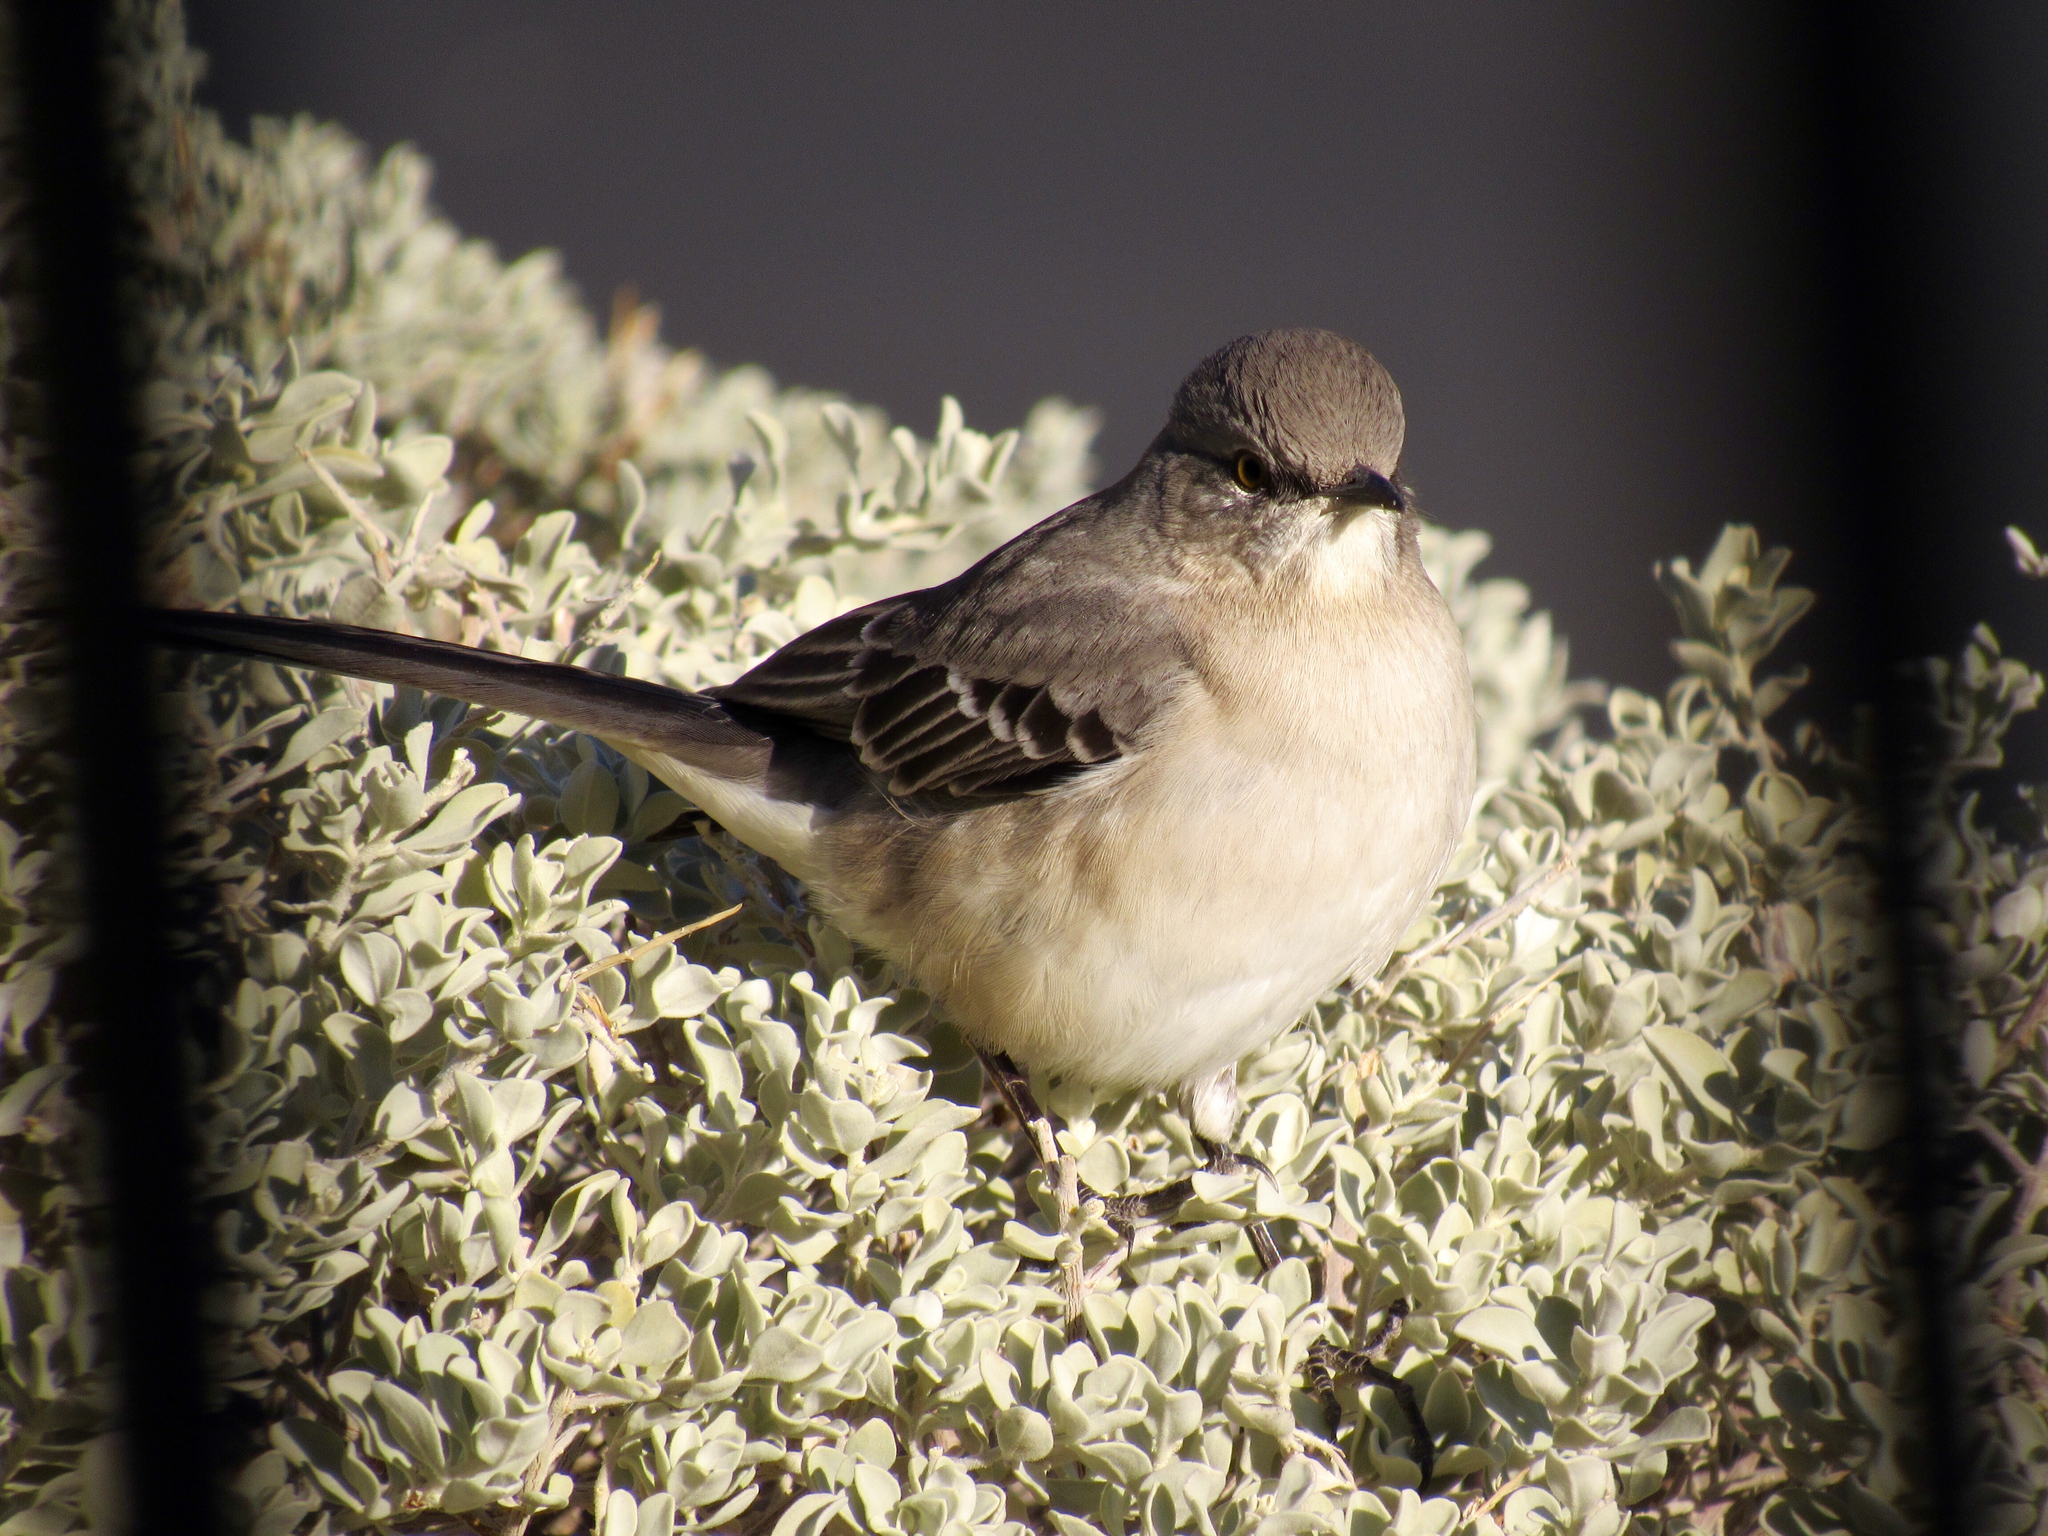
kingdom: Animalia
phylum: Chordata
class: Aves
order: Passeriformes
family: Mimidae
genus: Mimus
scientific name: Mimus polyglottos
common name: Northern mockingbird
